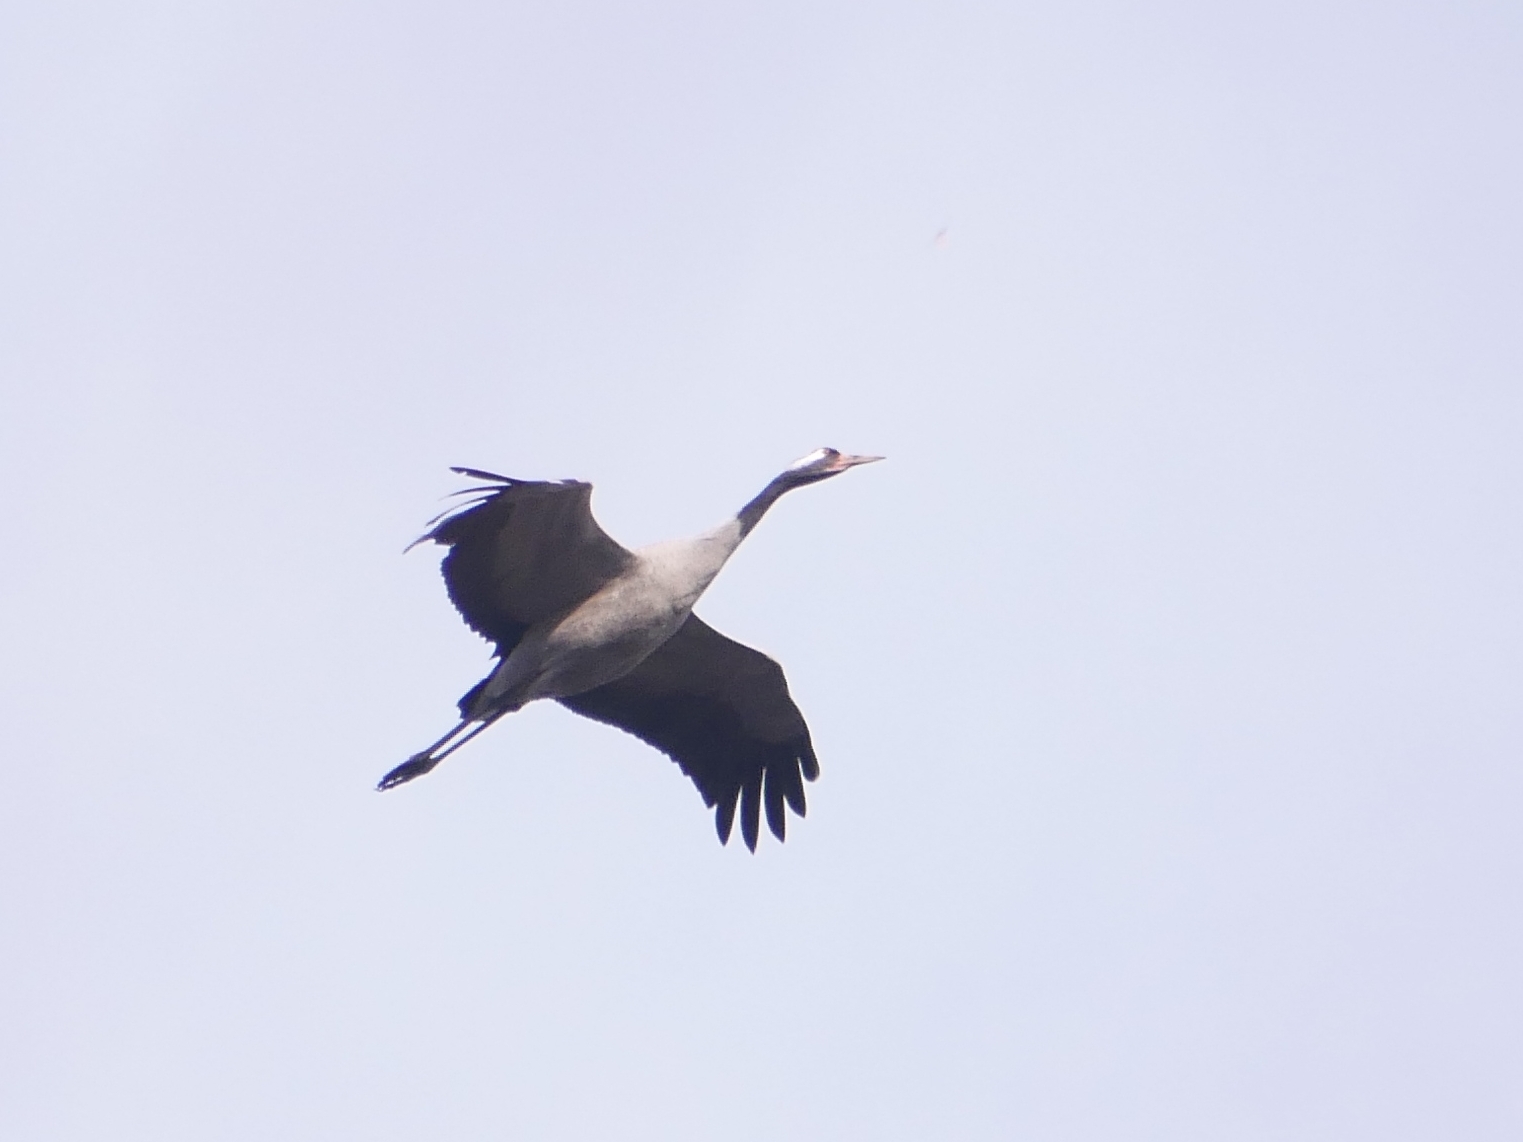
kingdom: Animalia
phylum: Chordata
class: Aves
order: Gruiformes
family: Gruidae
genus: Grus
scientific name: Grus grus
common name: Common crane
